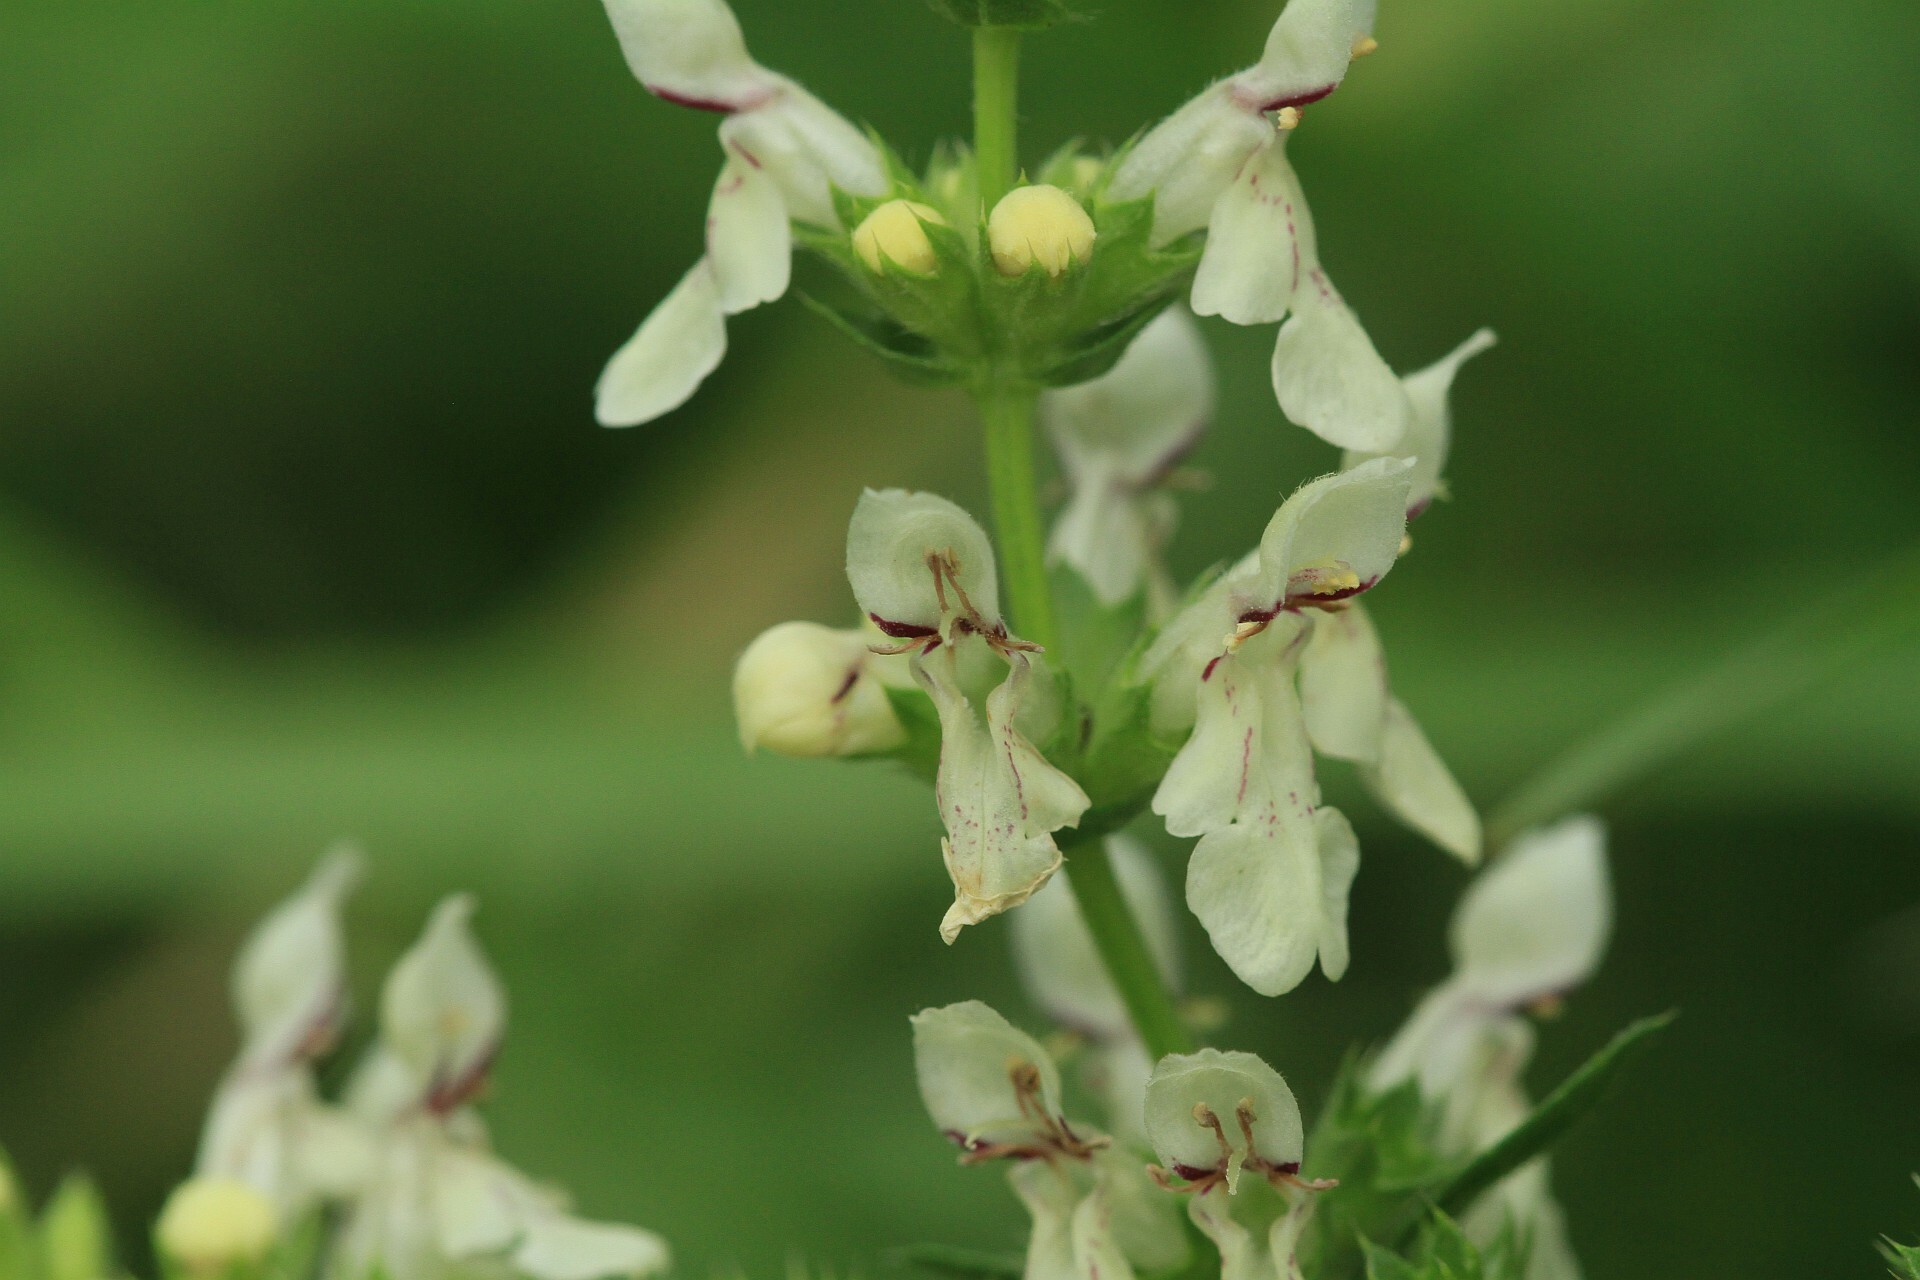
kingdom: Plantae
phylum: Tracheophyta
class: Magnoliopsida
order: Lamiales
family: Lamiaceae
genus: Stachys
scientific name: Stachys recta
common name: Perennial yellow-woundwort
